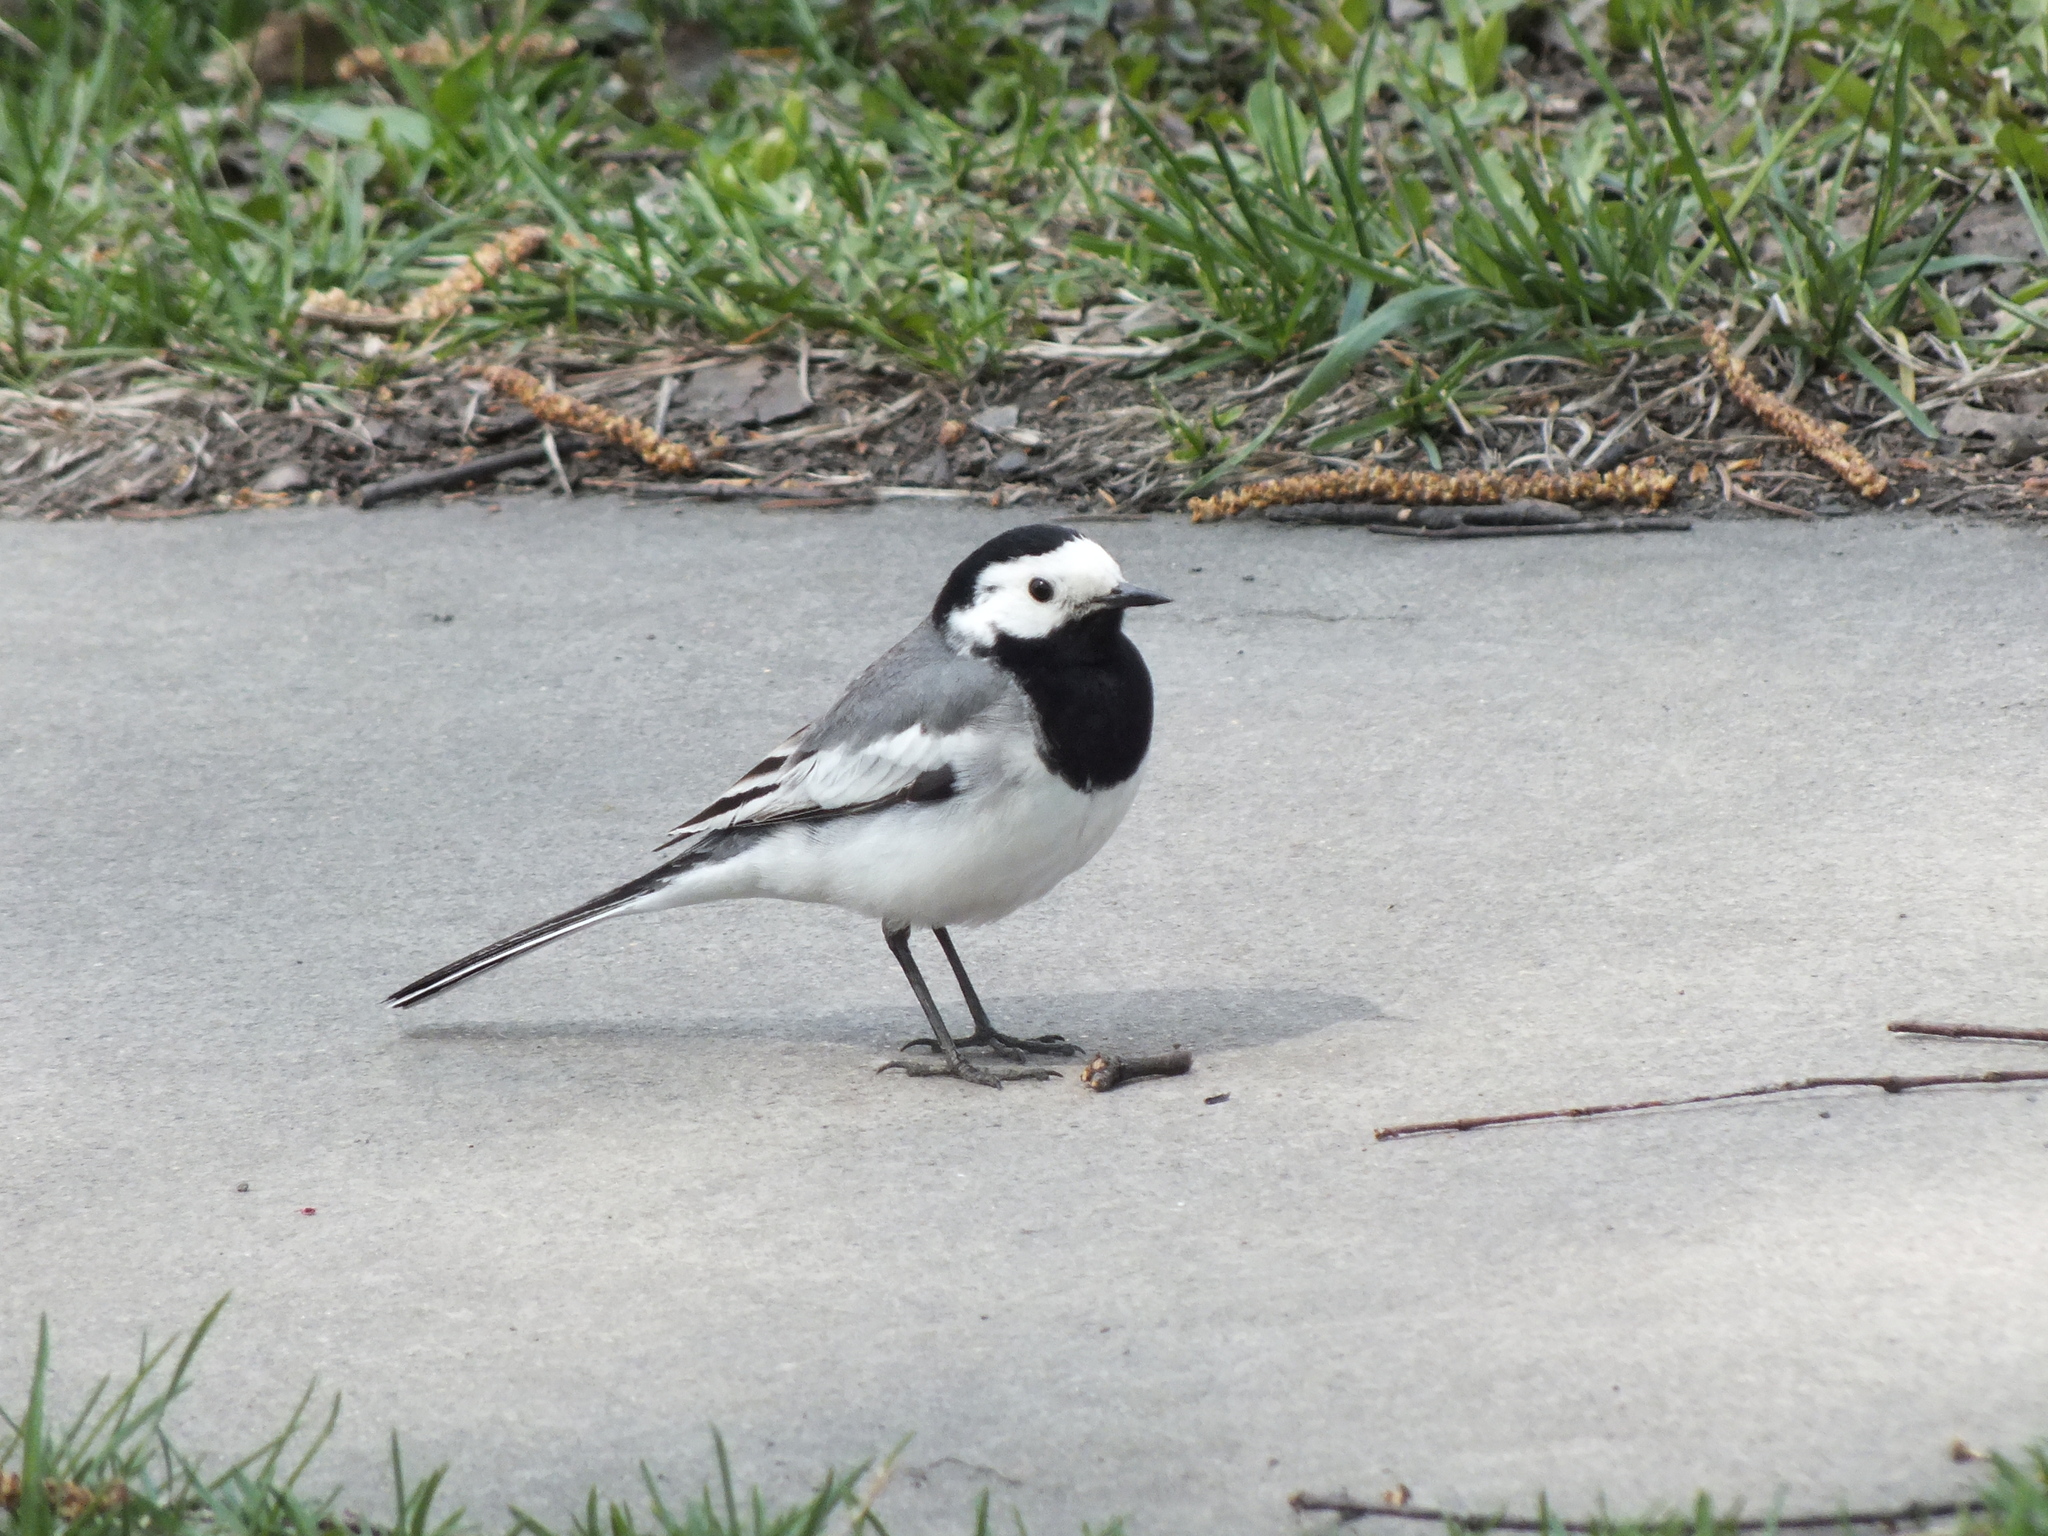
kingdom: Animalia
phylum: Chordata
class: Aves
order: Passeriformes
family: Motacillidae
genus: Motacilla
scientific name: Motacilla alba
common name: White wagtail
